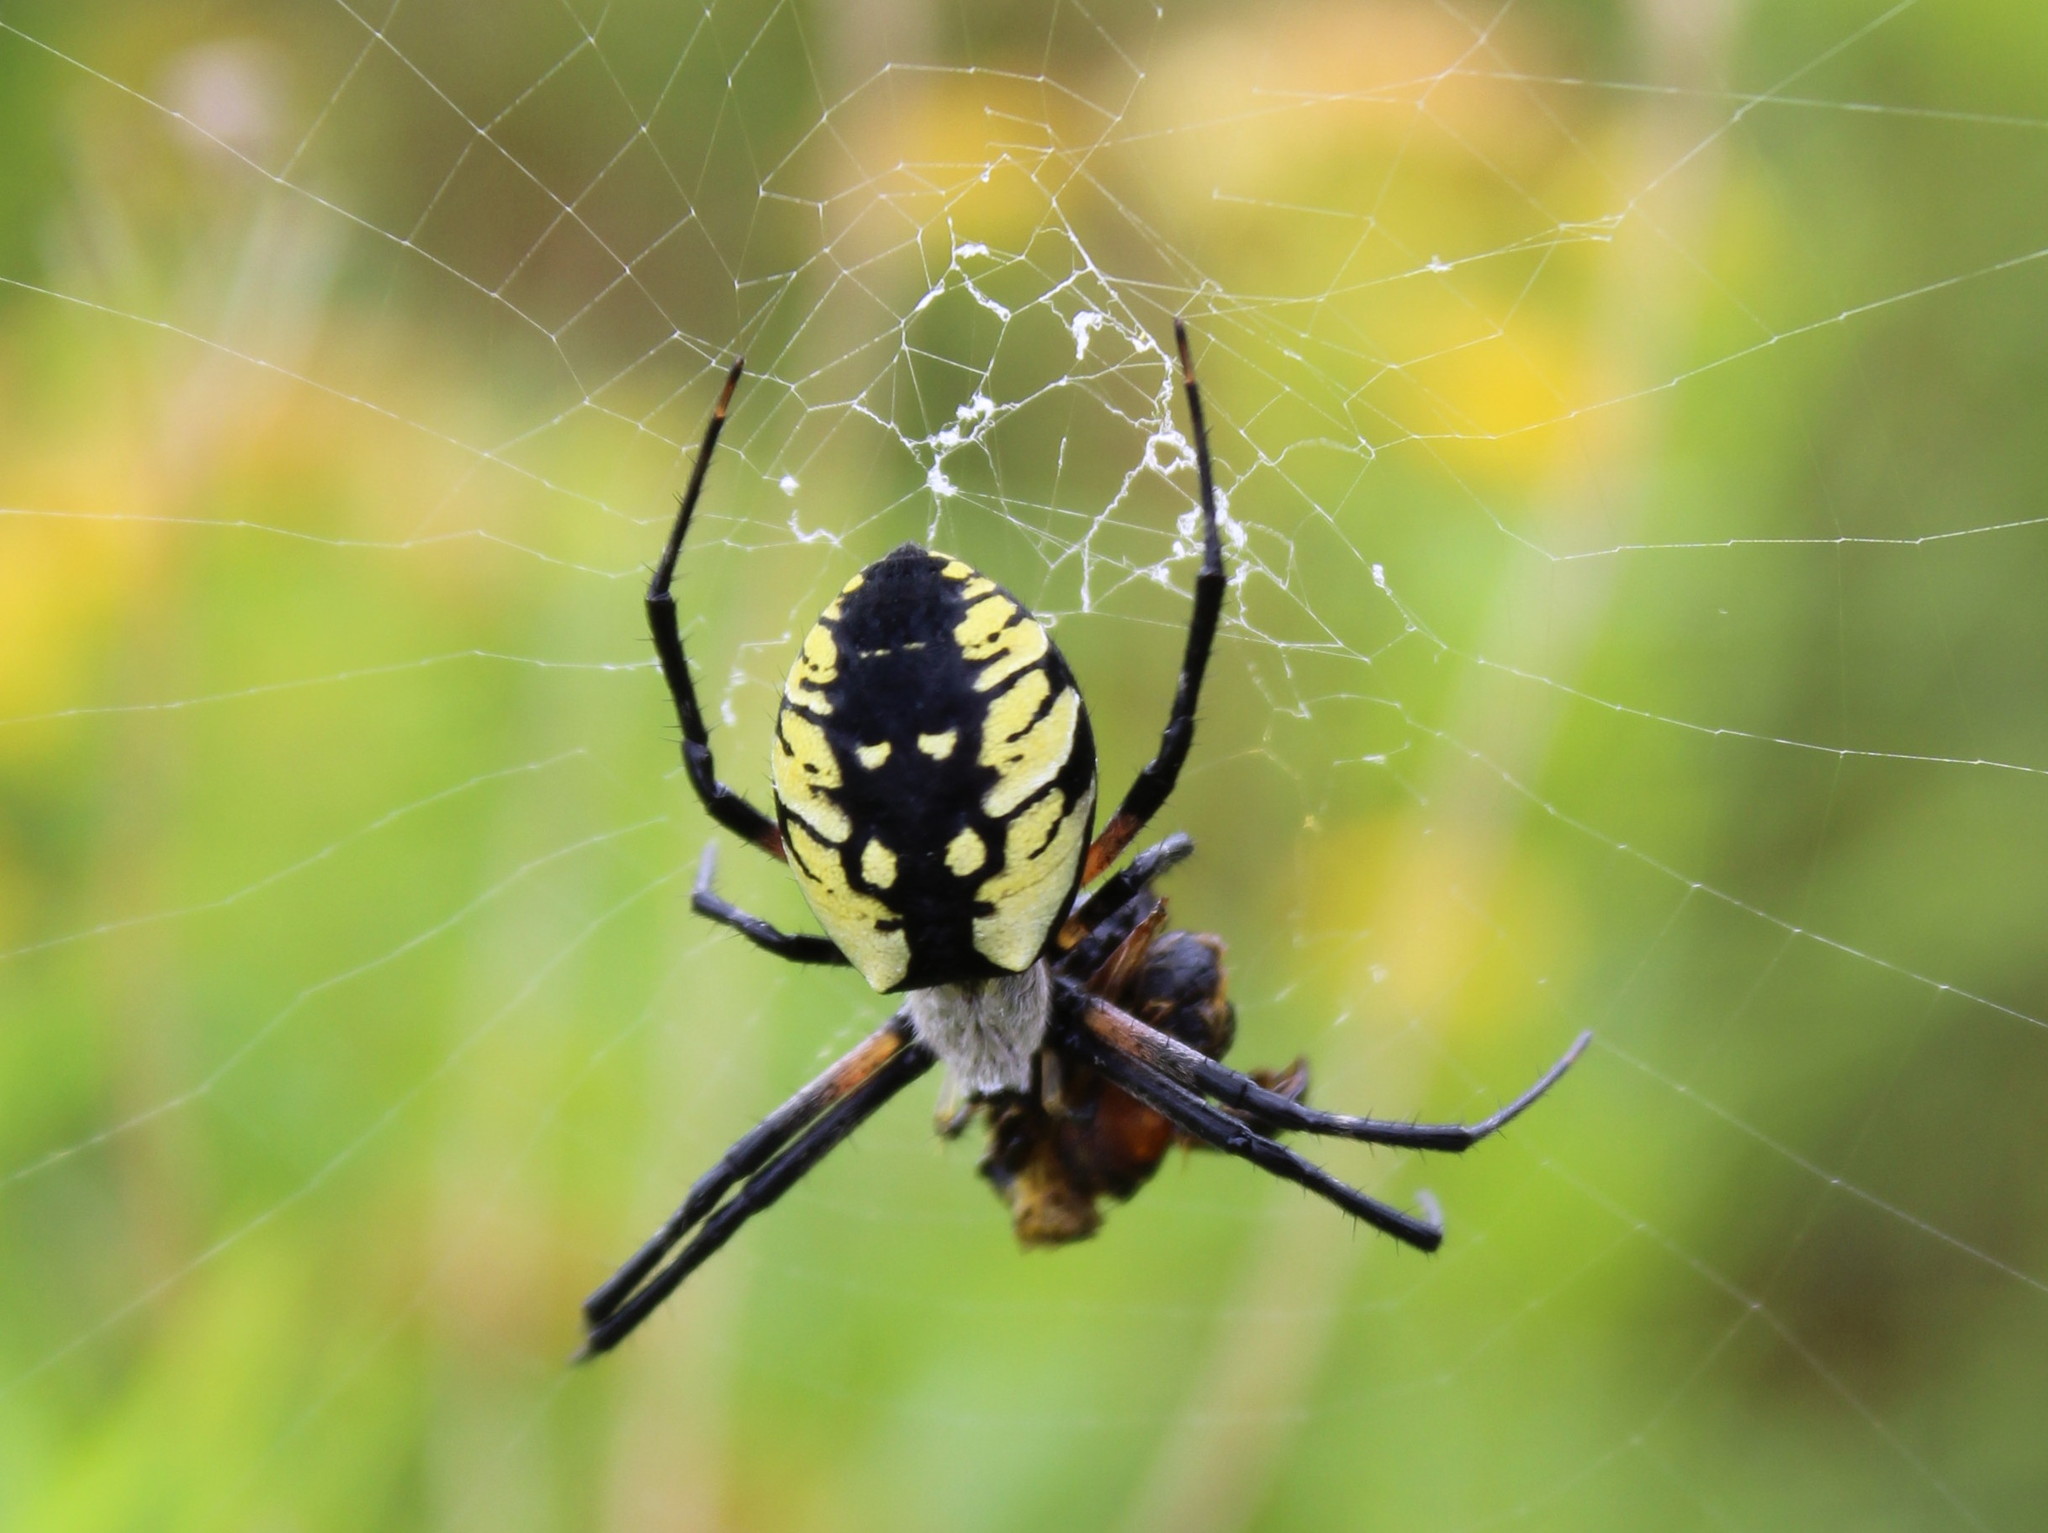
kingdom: Animalia
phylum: Arthropoda
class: Arachnida
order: Araneae
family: Araneidae
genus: Argiope
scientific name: Argiope aurantia
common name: Orb weavers
